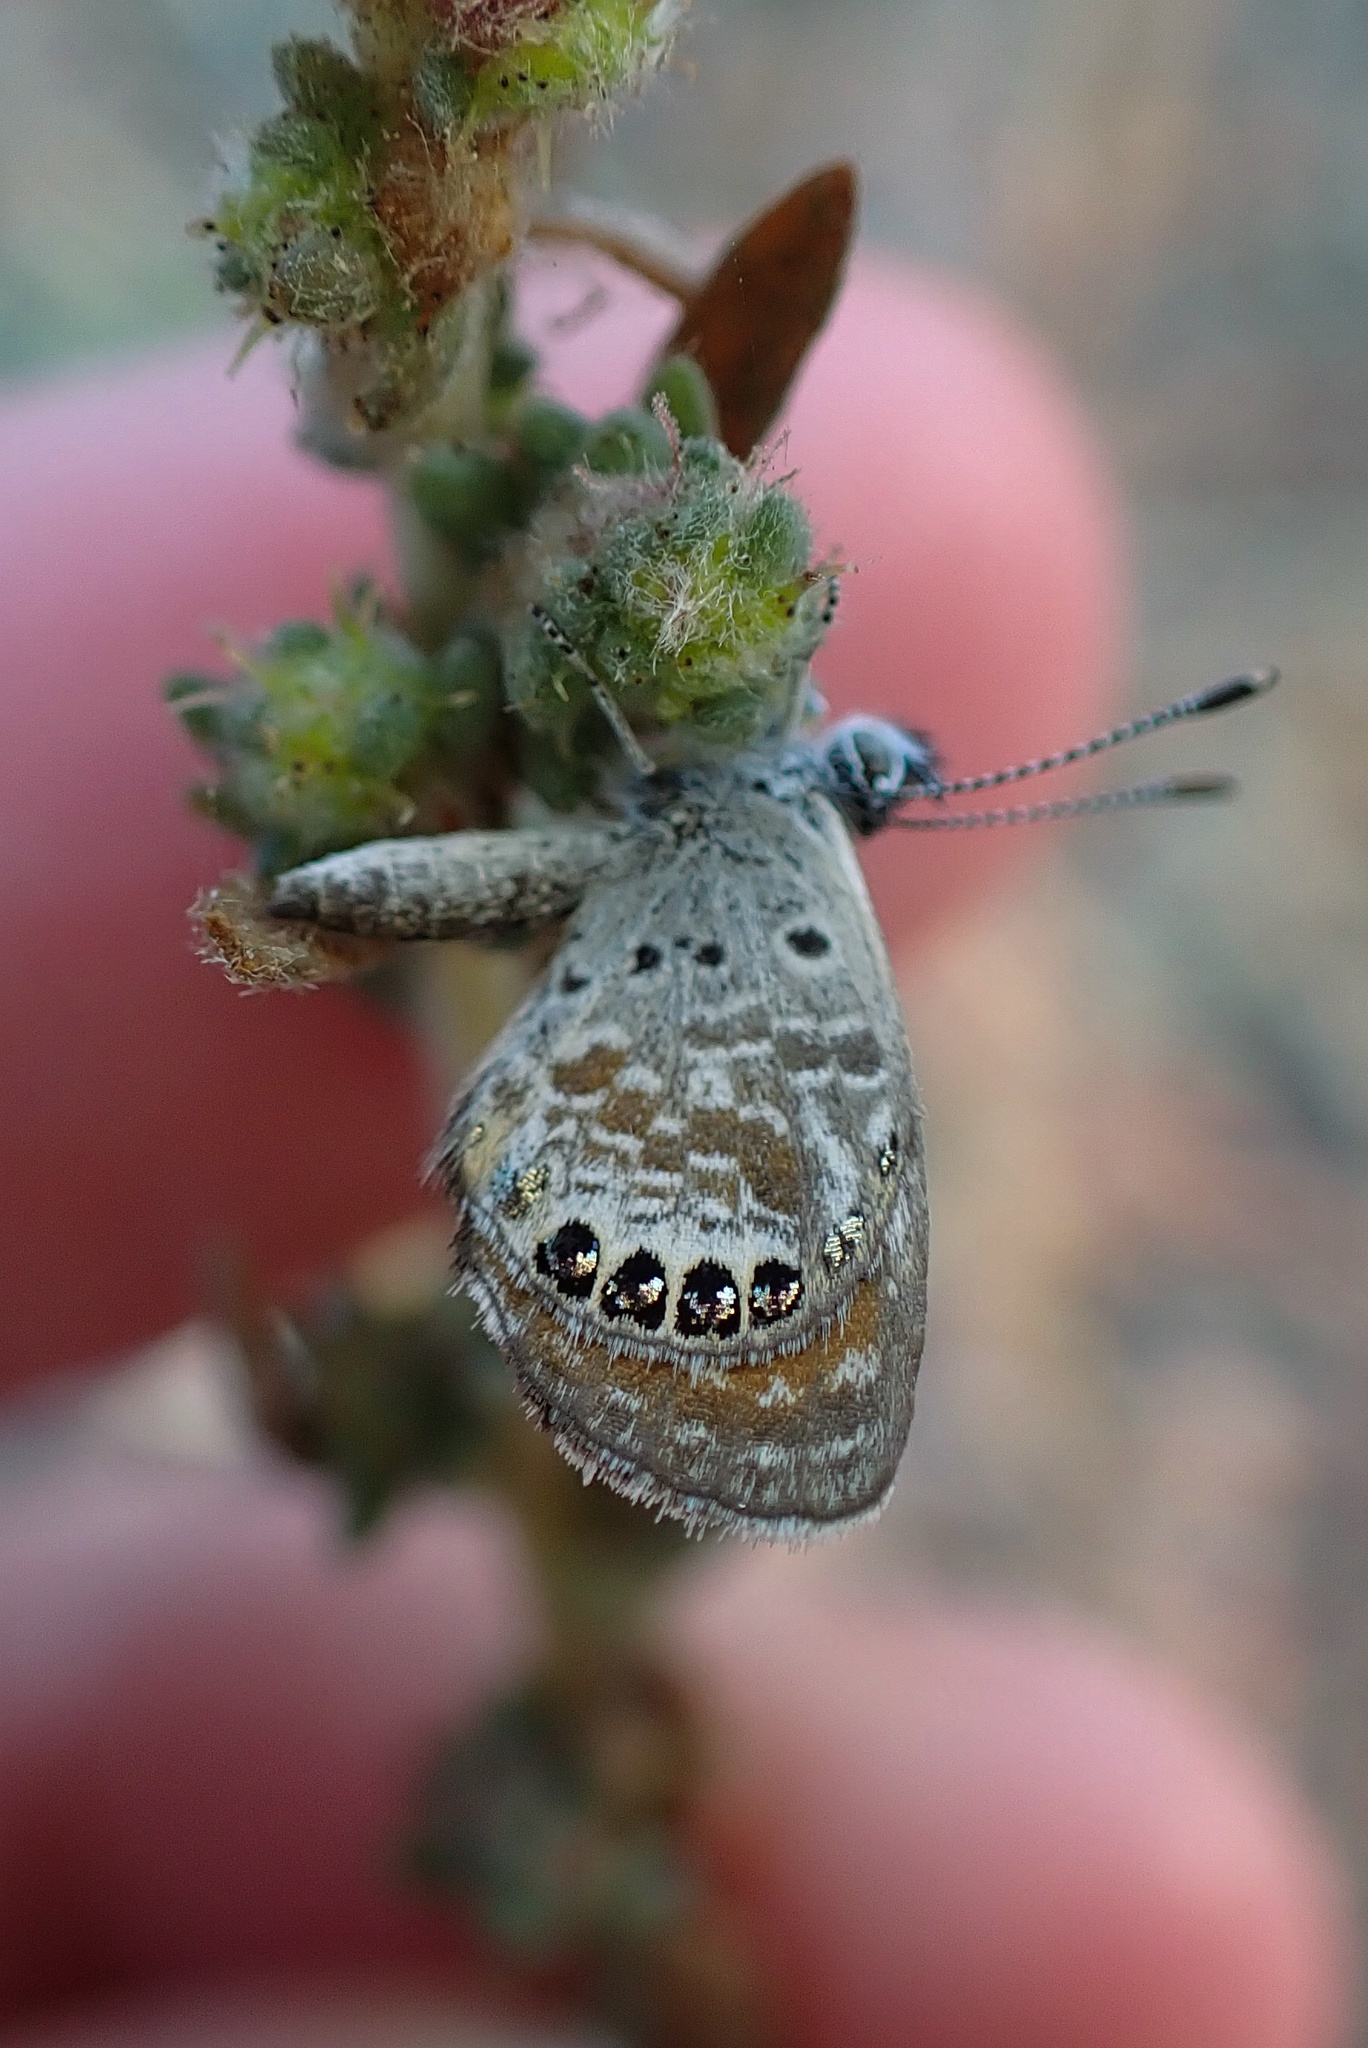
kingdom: Animalia
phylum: Arthropoda
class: Insecta
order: Lepidoptera
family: Lycaenidae
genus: Brephidium
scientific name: Brephidium exilis
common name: Pygmy blue
